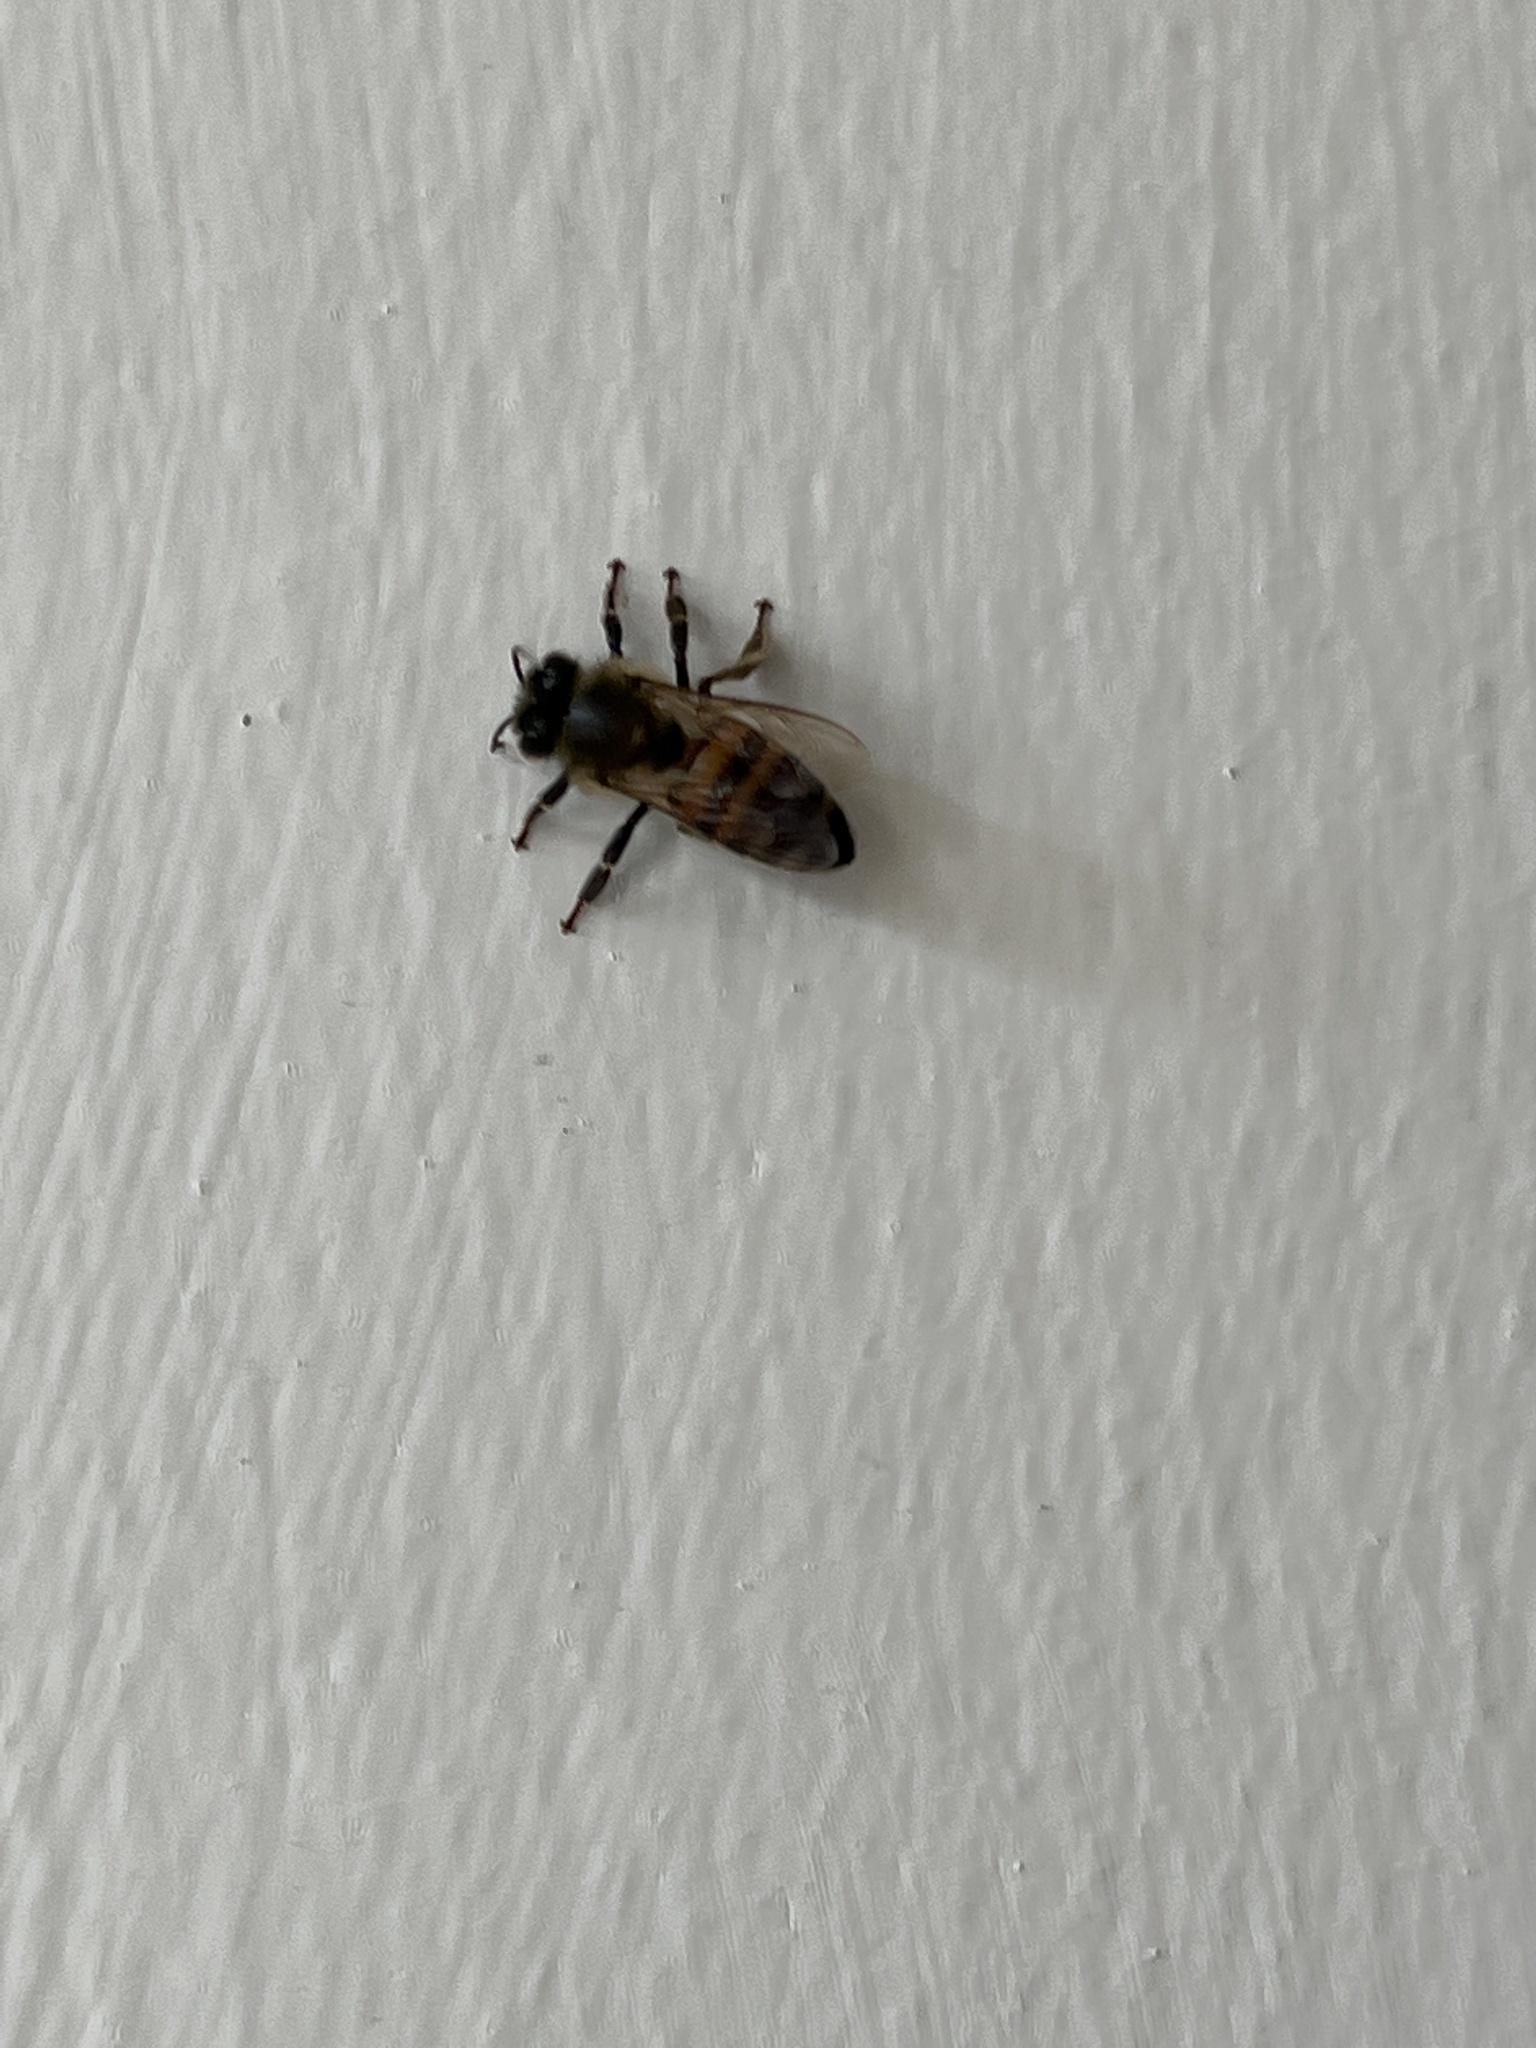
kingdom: Animalia
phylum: Arthropoda
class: Insecta
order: Hymenoptera
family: Apidae
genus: Apis
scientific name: Apis mellifera
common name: Honey bee
